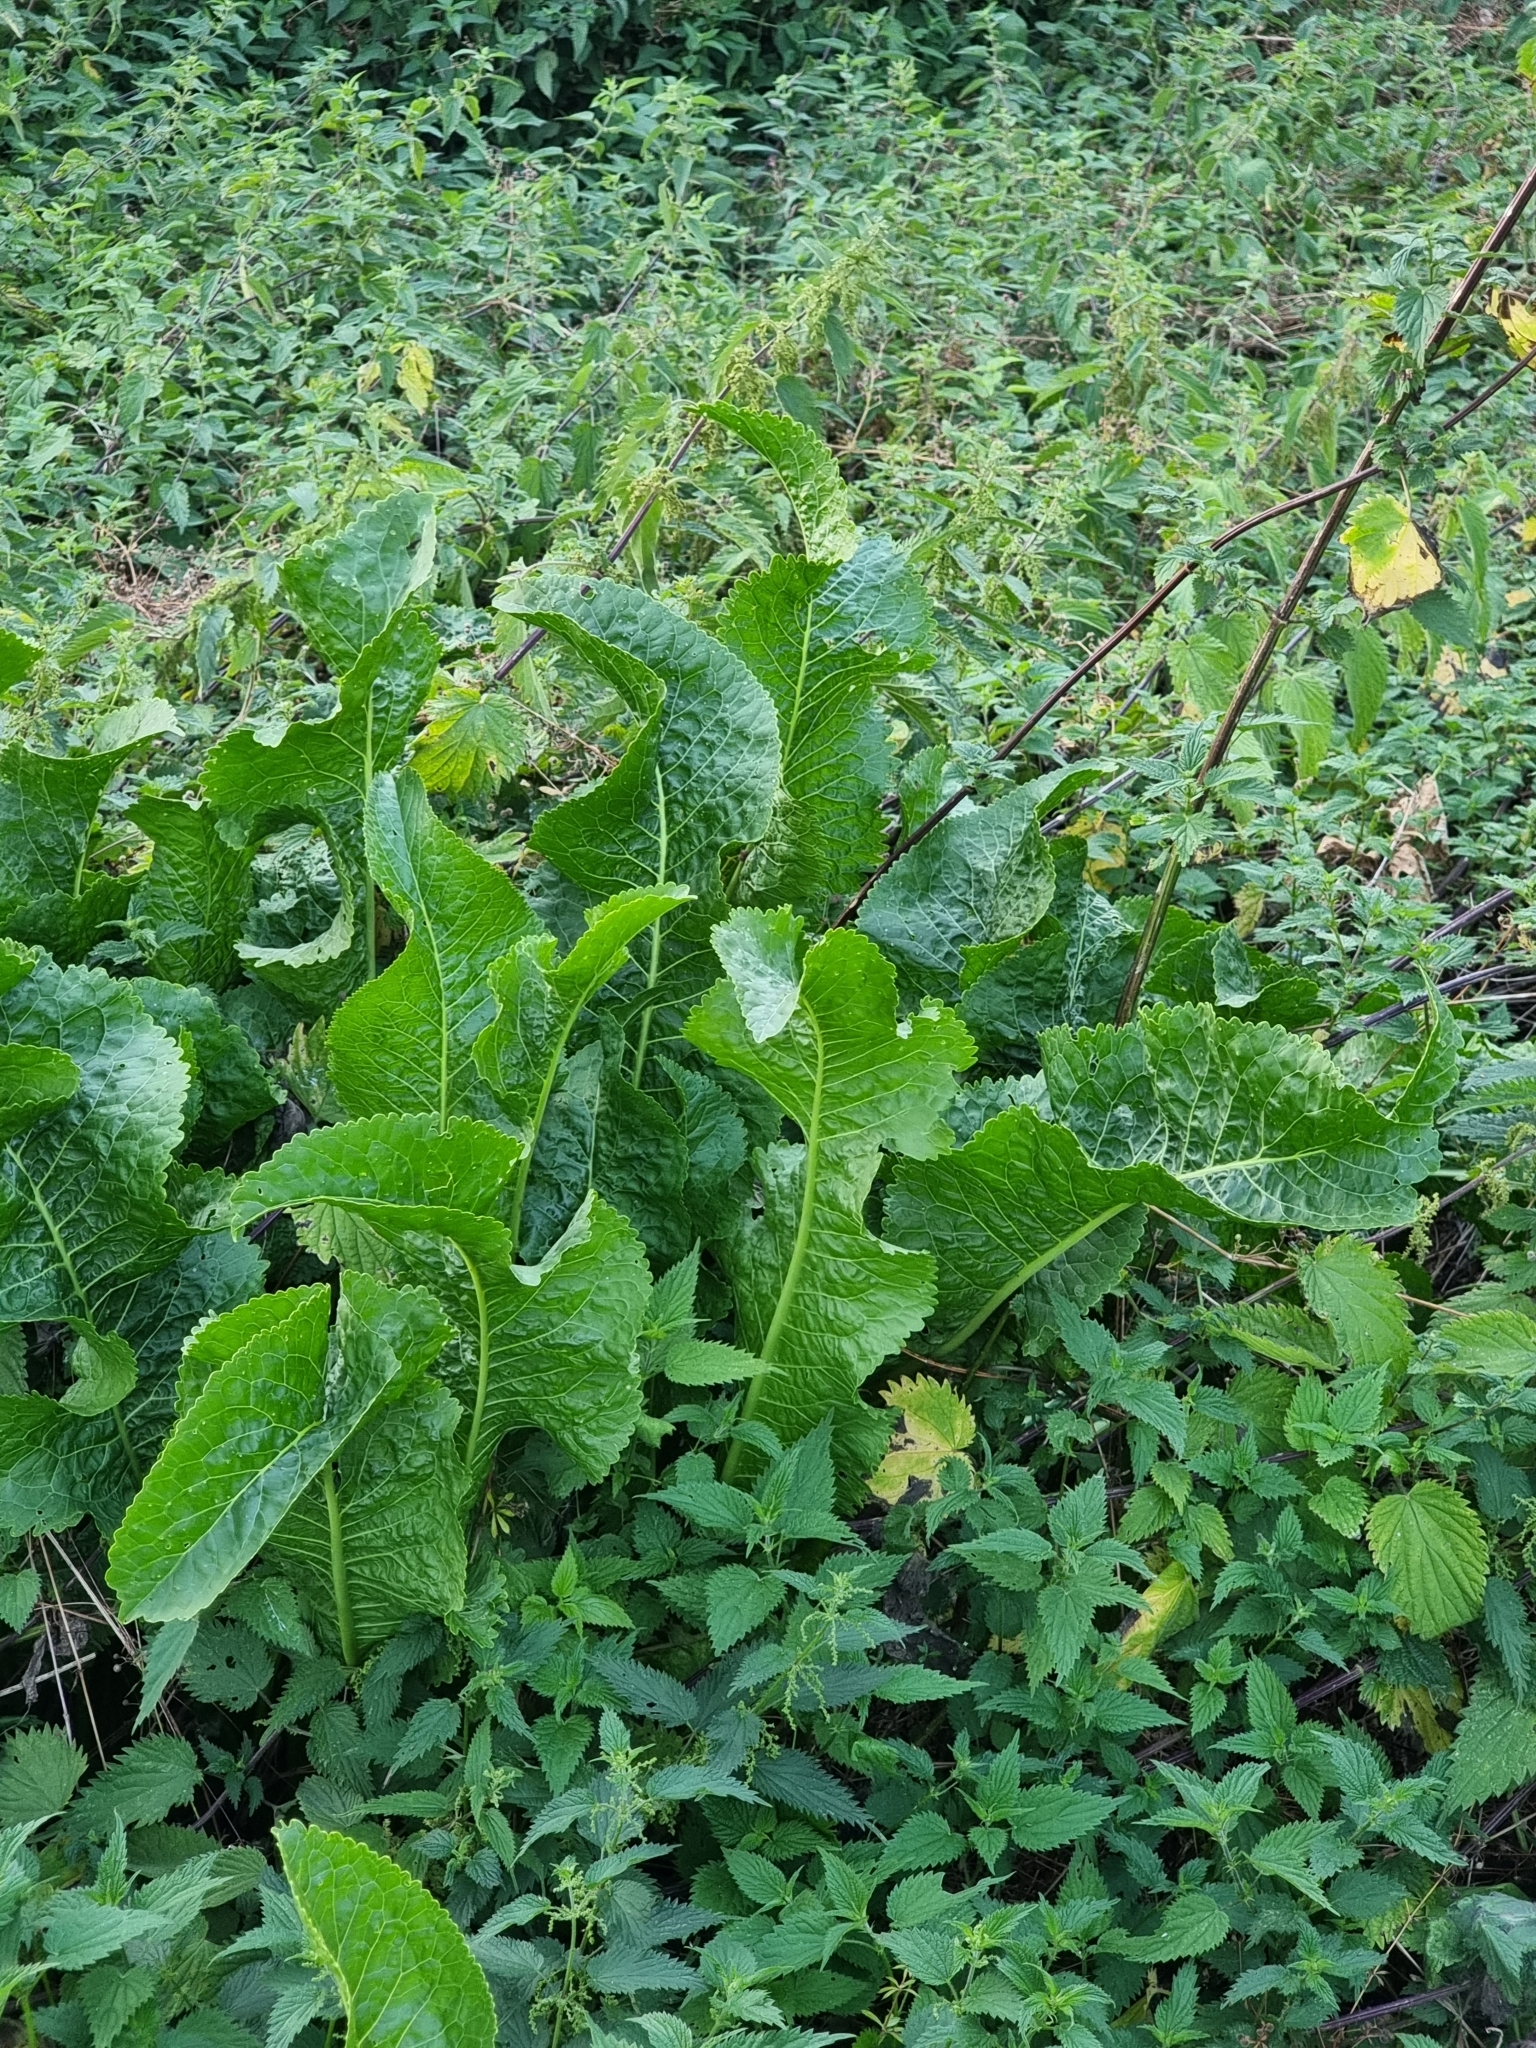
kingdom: Plantae
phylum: Tracheophyta
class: Magnoliopsida
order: Brassicales
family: Brassicaceae
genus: Armoracia
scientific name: Armoracia rusticana
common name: Horseradish
